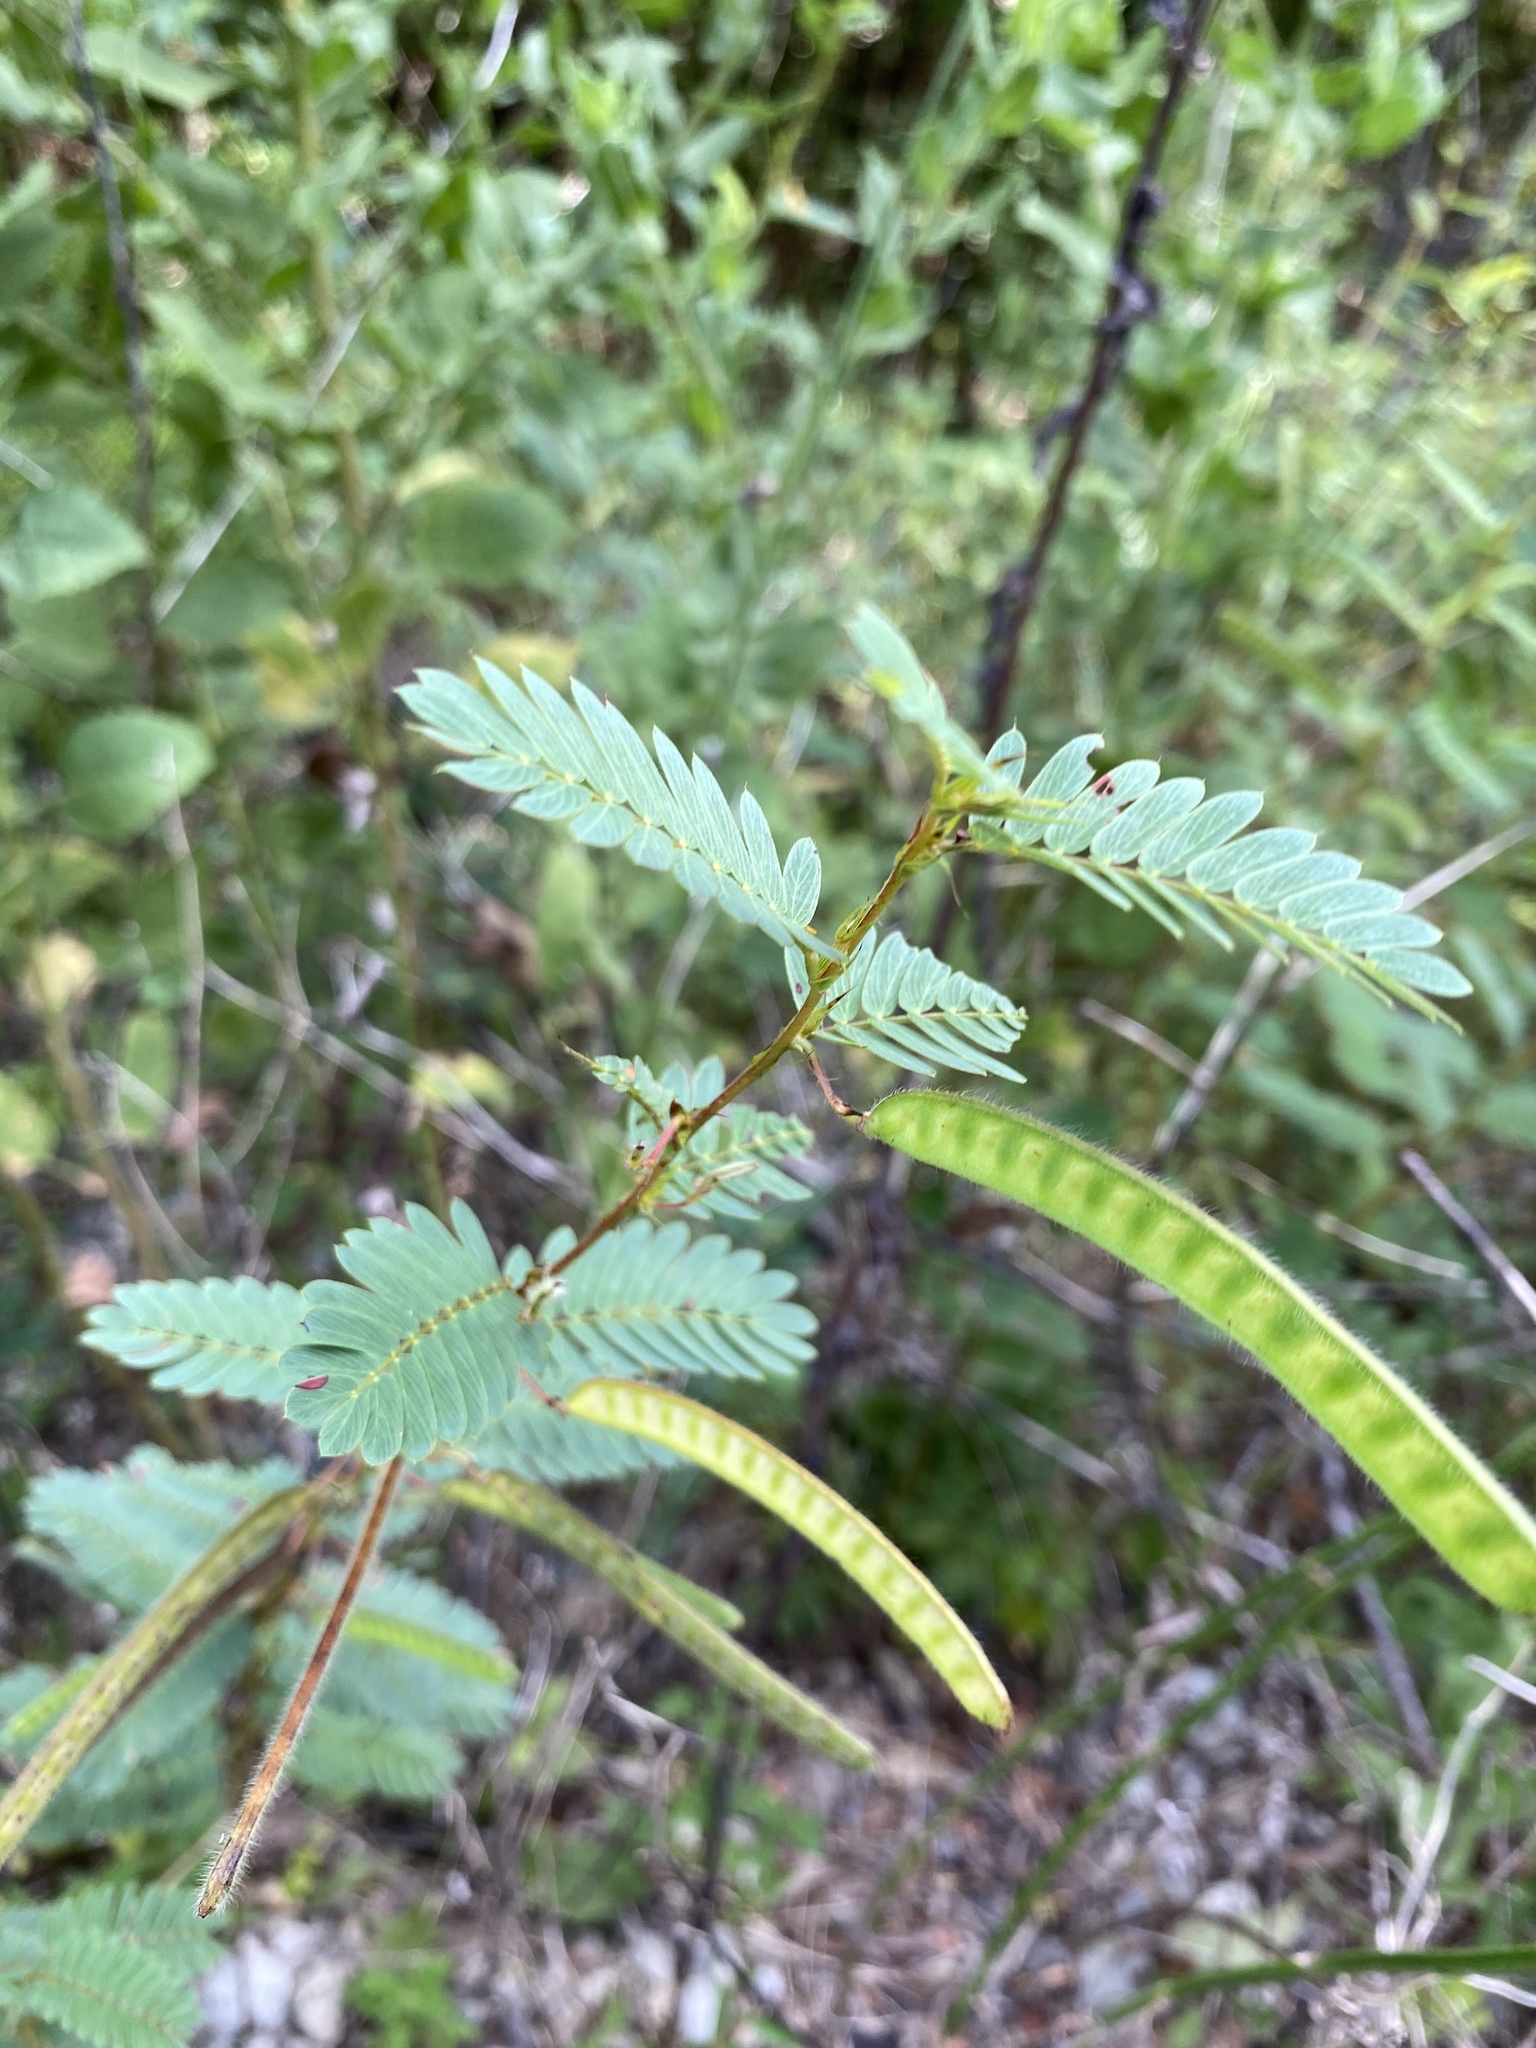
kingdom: Plantae
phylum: Tracheophyta
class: Magnoliopsida
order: Fabales
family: Fabaceae
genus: Chamaecrista
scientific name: Chamaecrista fasciculata
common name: Golden cassia
